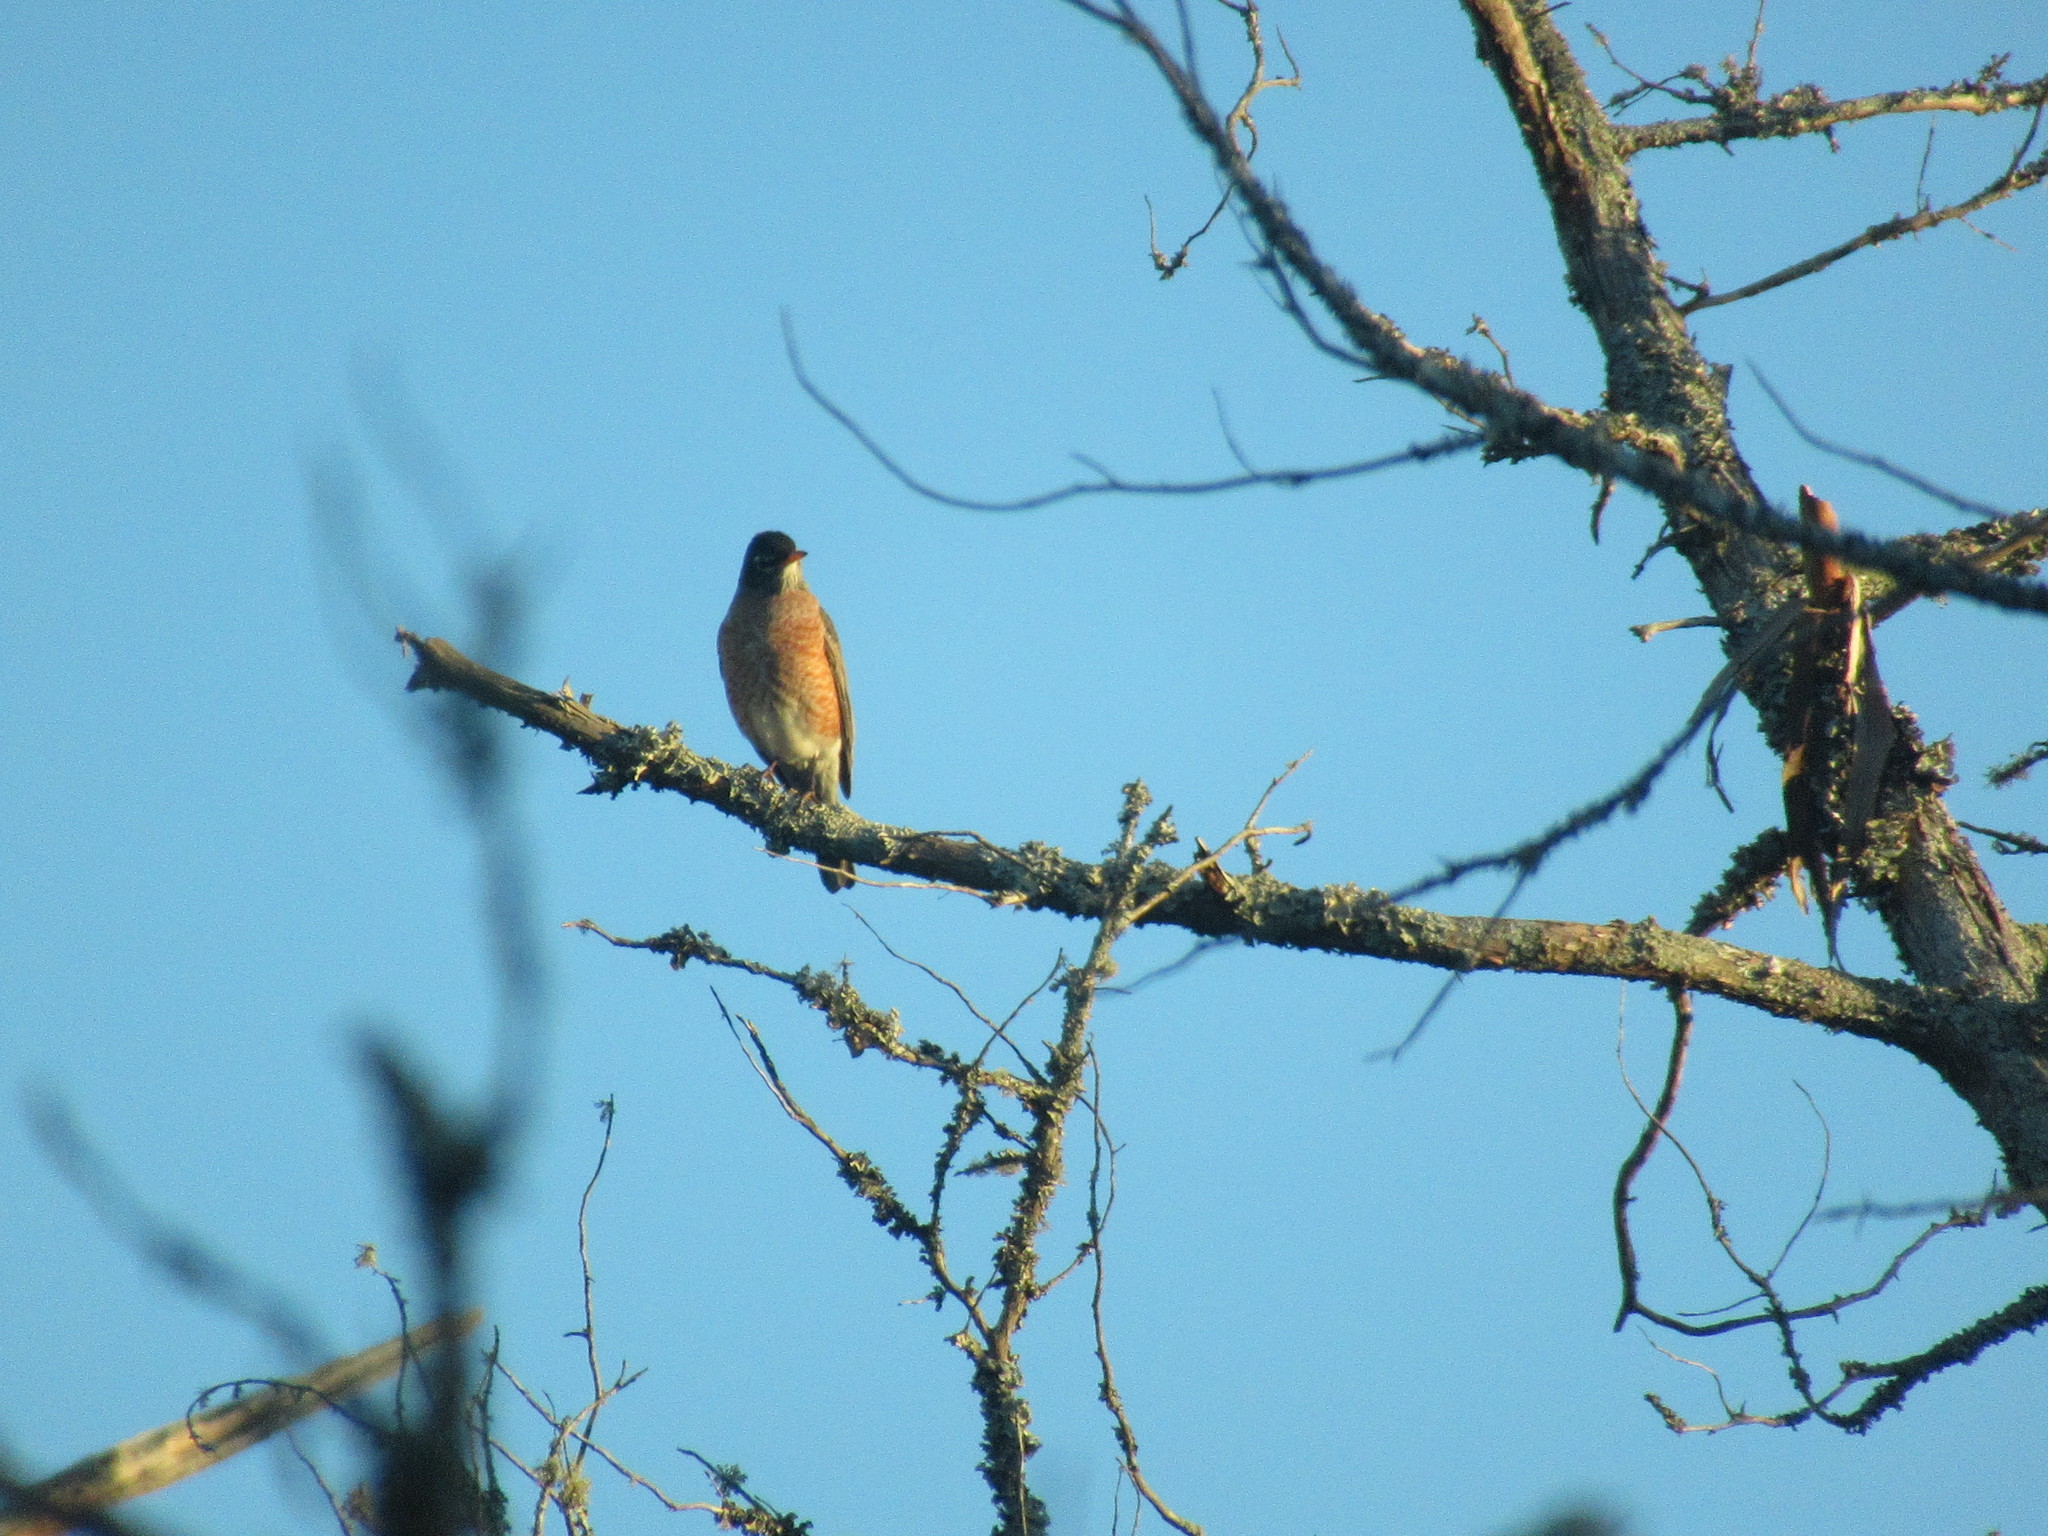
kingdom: Animalia
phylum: Chordata
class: Aves
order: Passeriformes
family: Turdidae
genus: Turdus
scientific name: Turdus migratorius
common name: American robin
